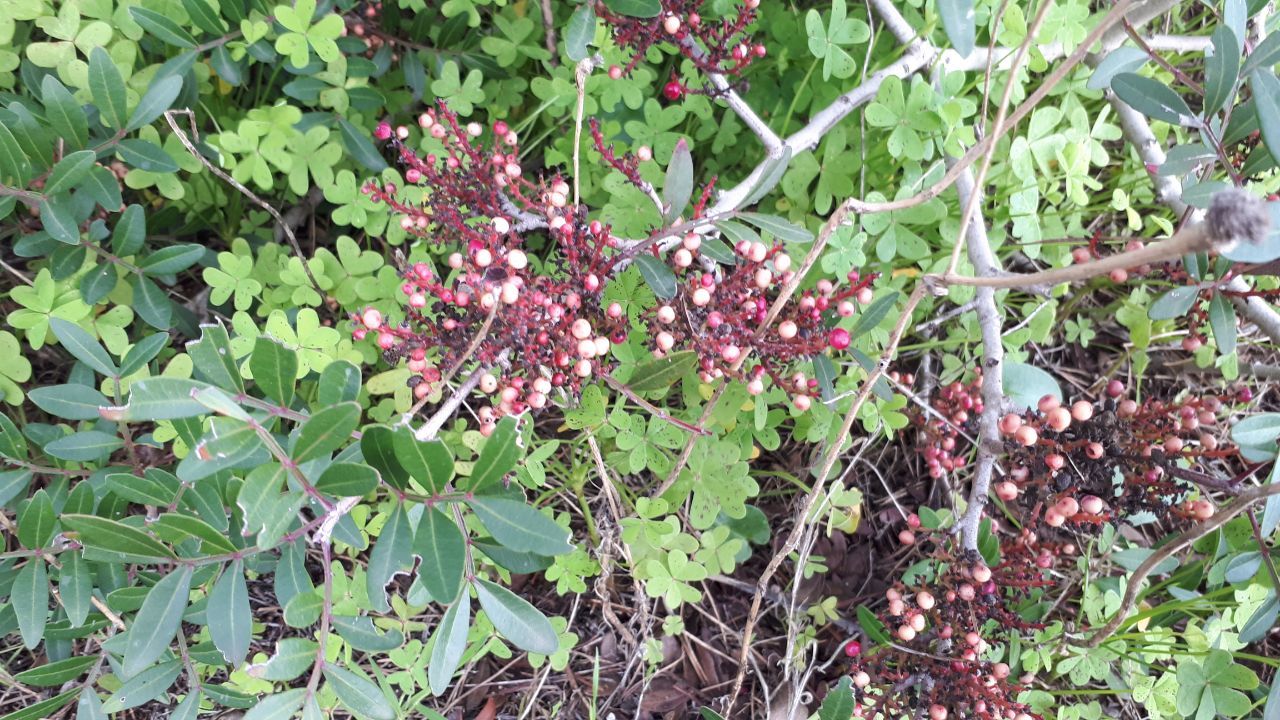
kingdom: Plantae
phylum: Tracheophyta
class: Magnoliopsida
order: Sapindales
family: Anacardiaceae
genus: Pistacia
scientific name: Pistacia lentiscus
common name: Lentisk
